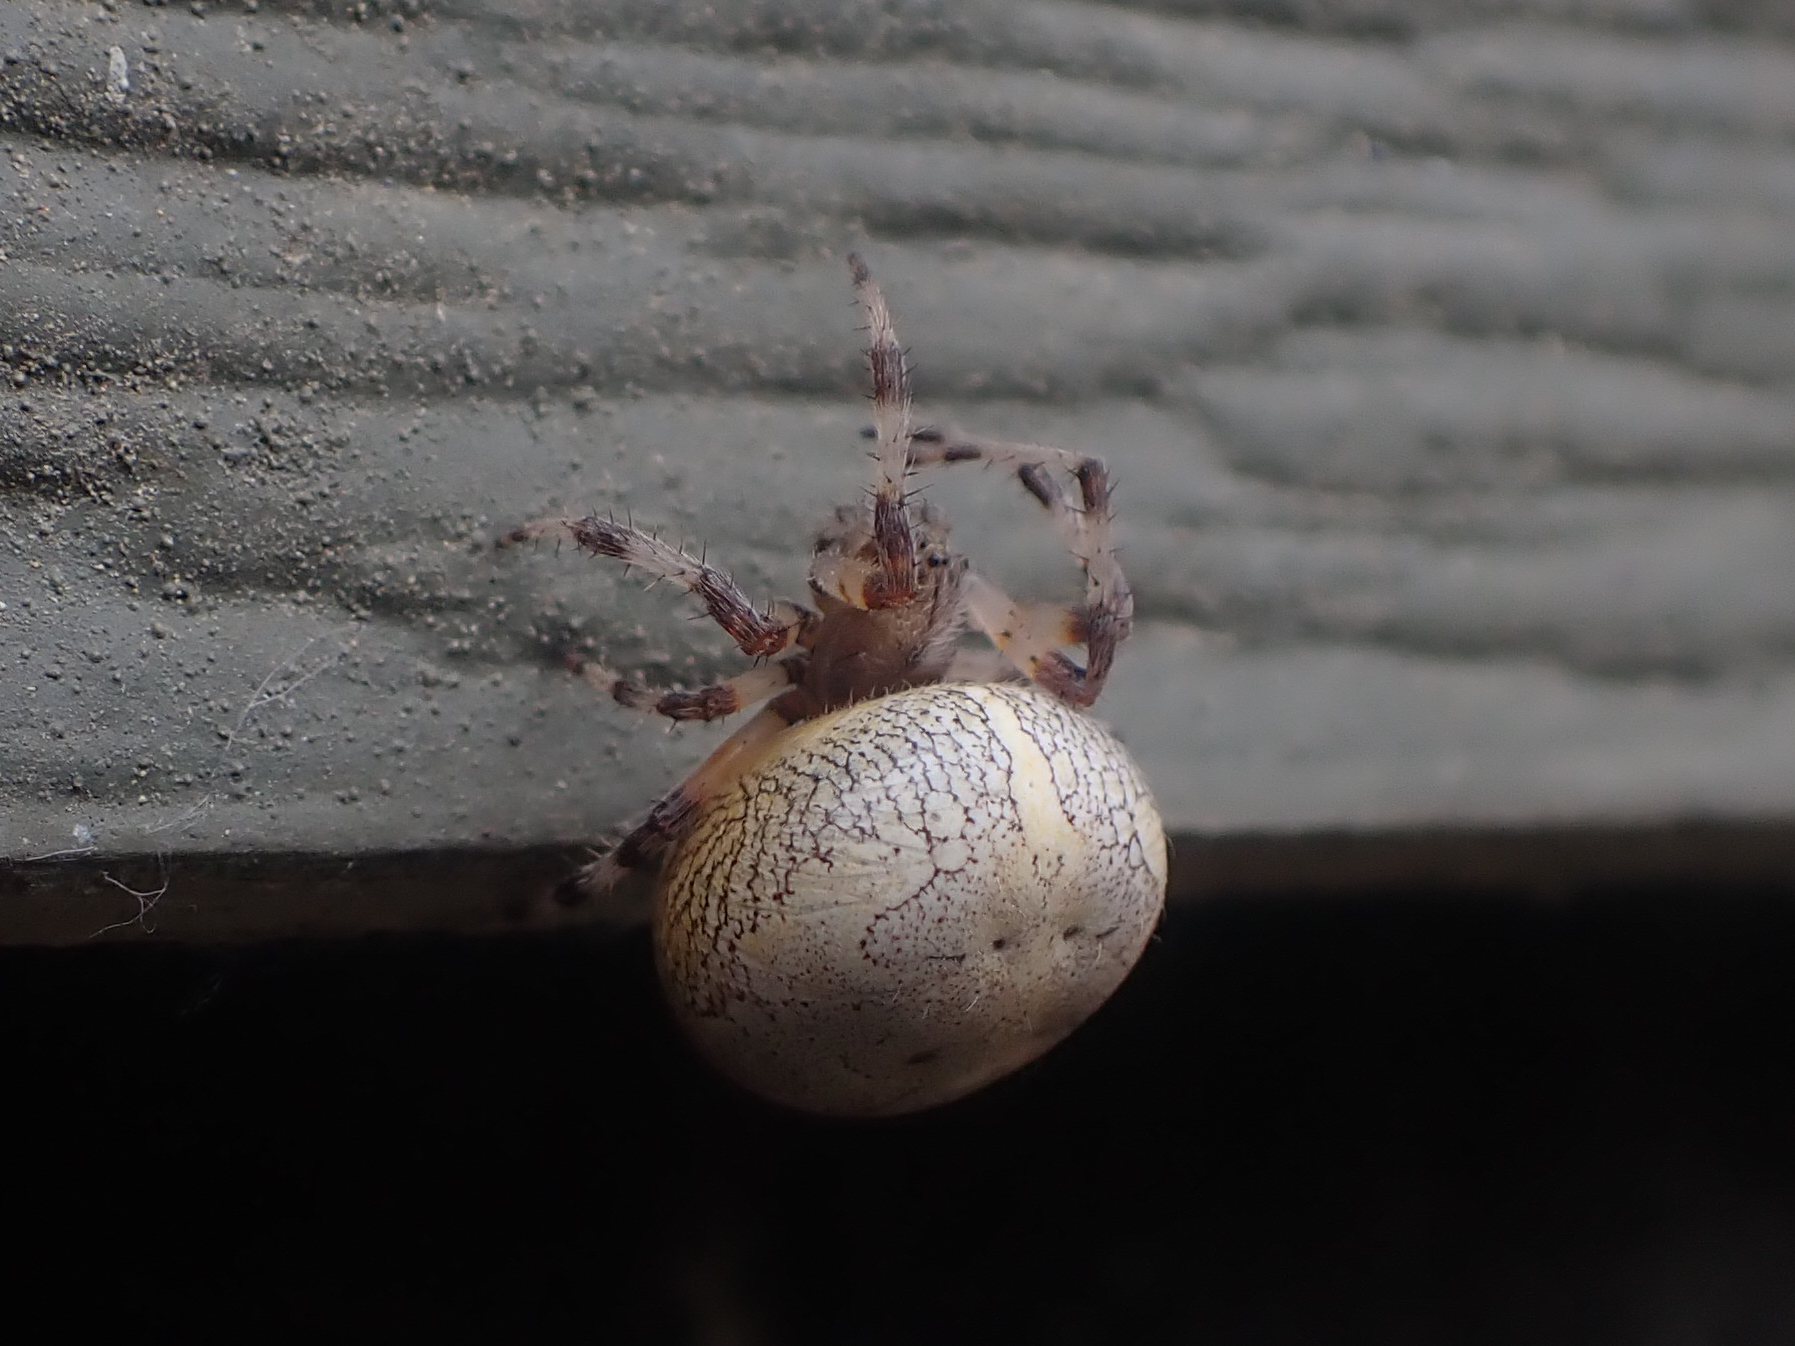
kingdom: Animalia
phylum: Arthropoda
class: Arachnida
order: Araneae
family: Araneidae
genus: Araneus
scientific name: Araneus marmoreus
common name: Marbled orbweaver
